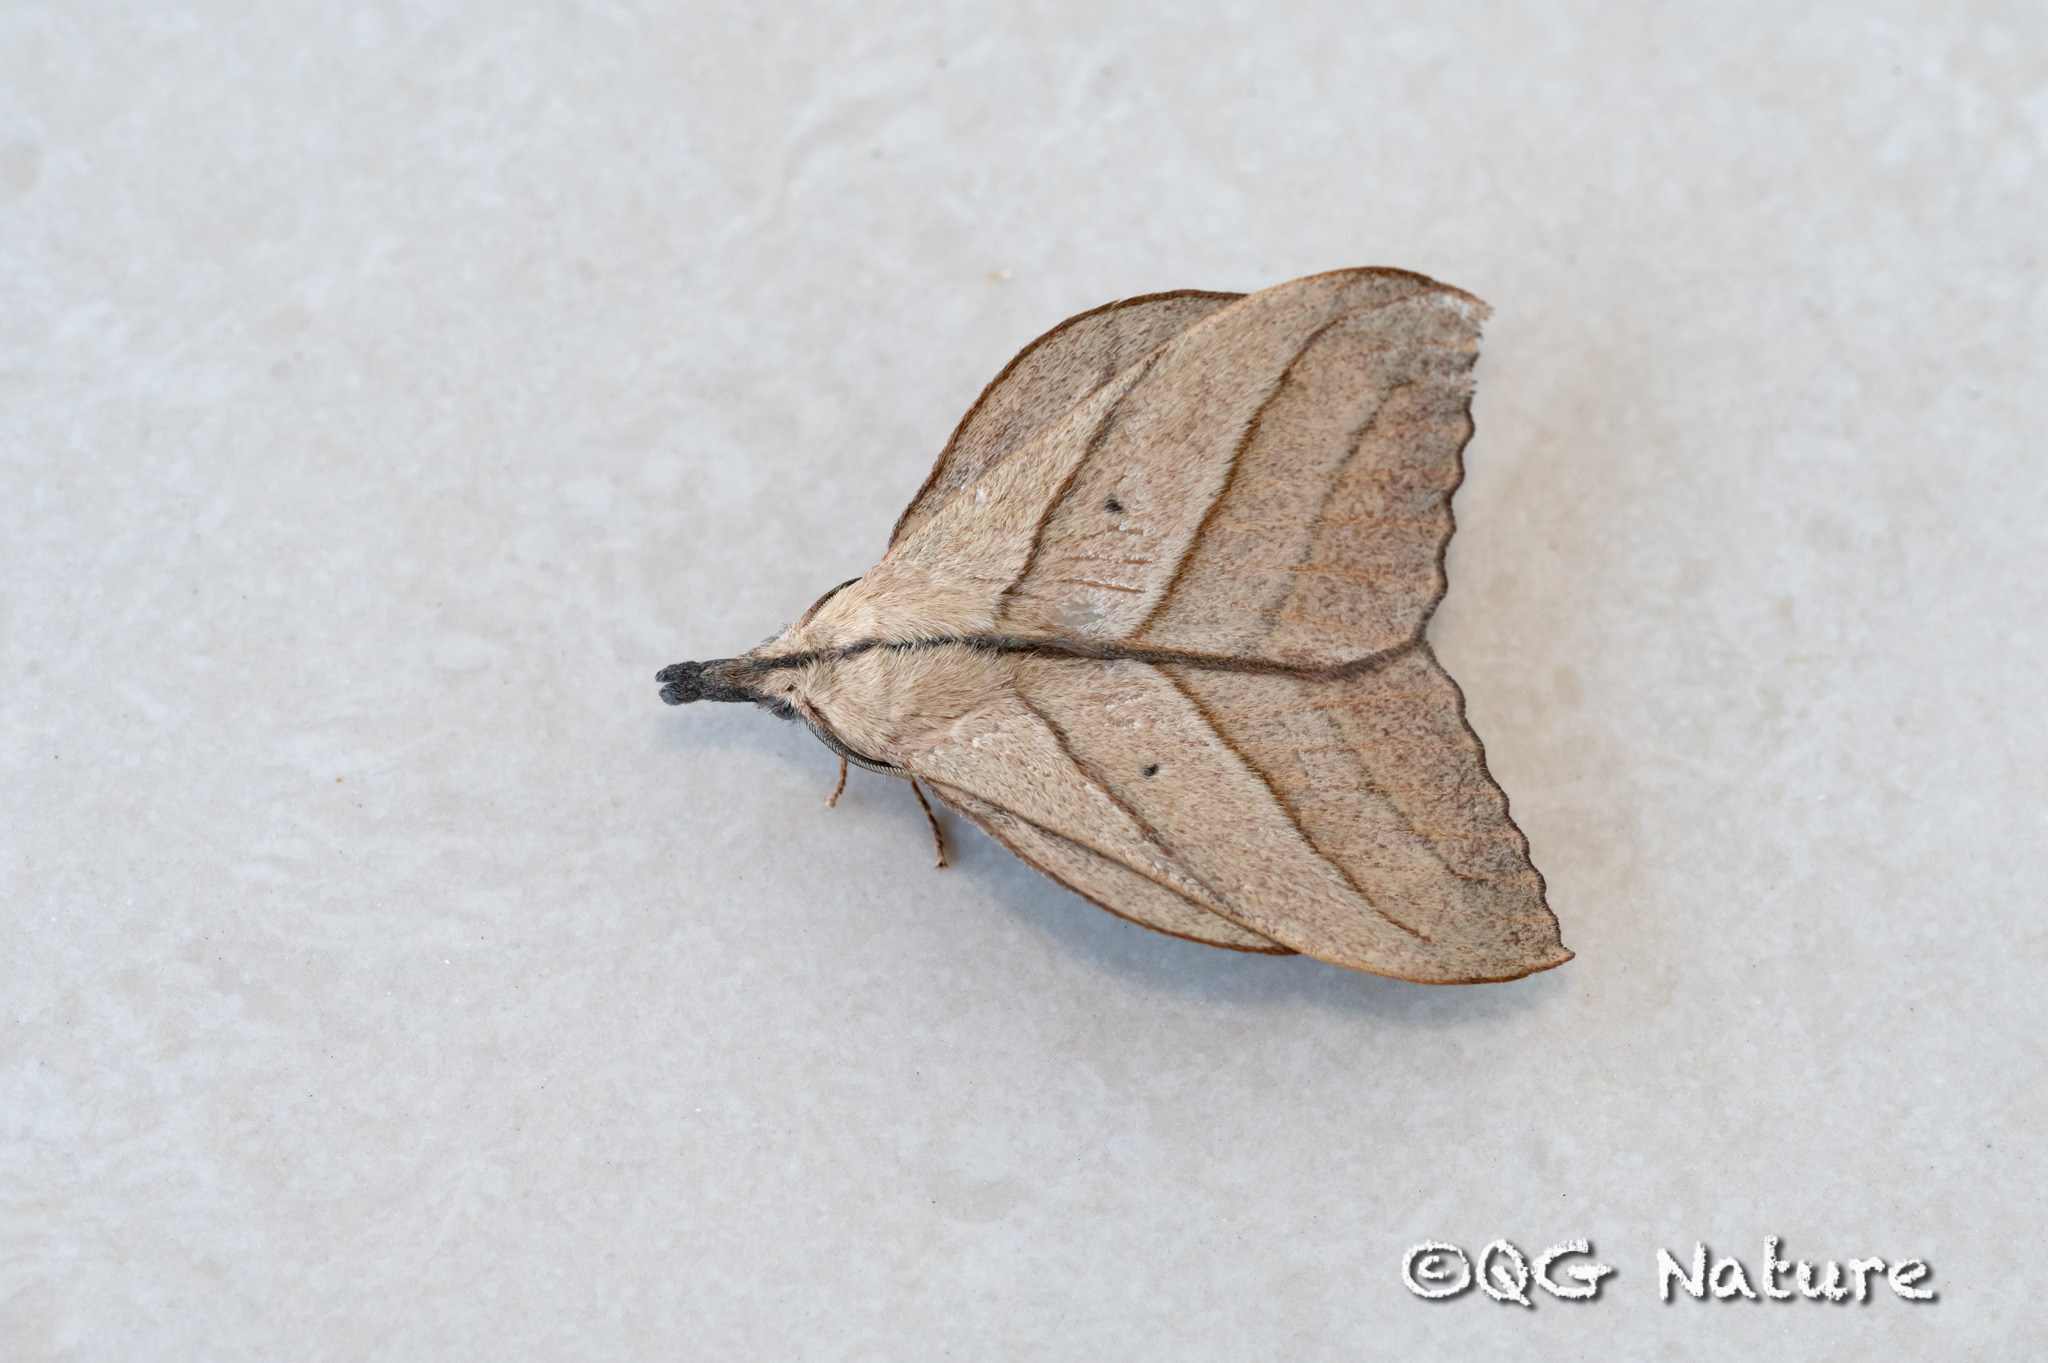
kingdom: Animalia
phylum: Arthropoda
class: Insecta
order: Lepidoptera
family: Lasiocampidae
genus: Arguda
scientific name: Arguda vinata
